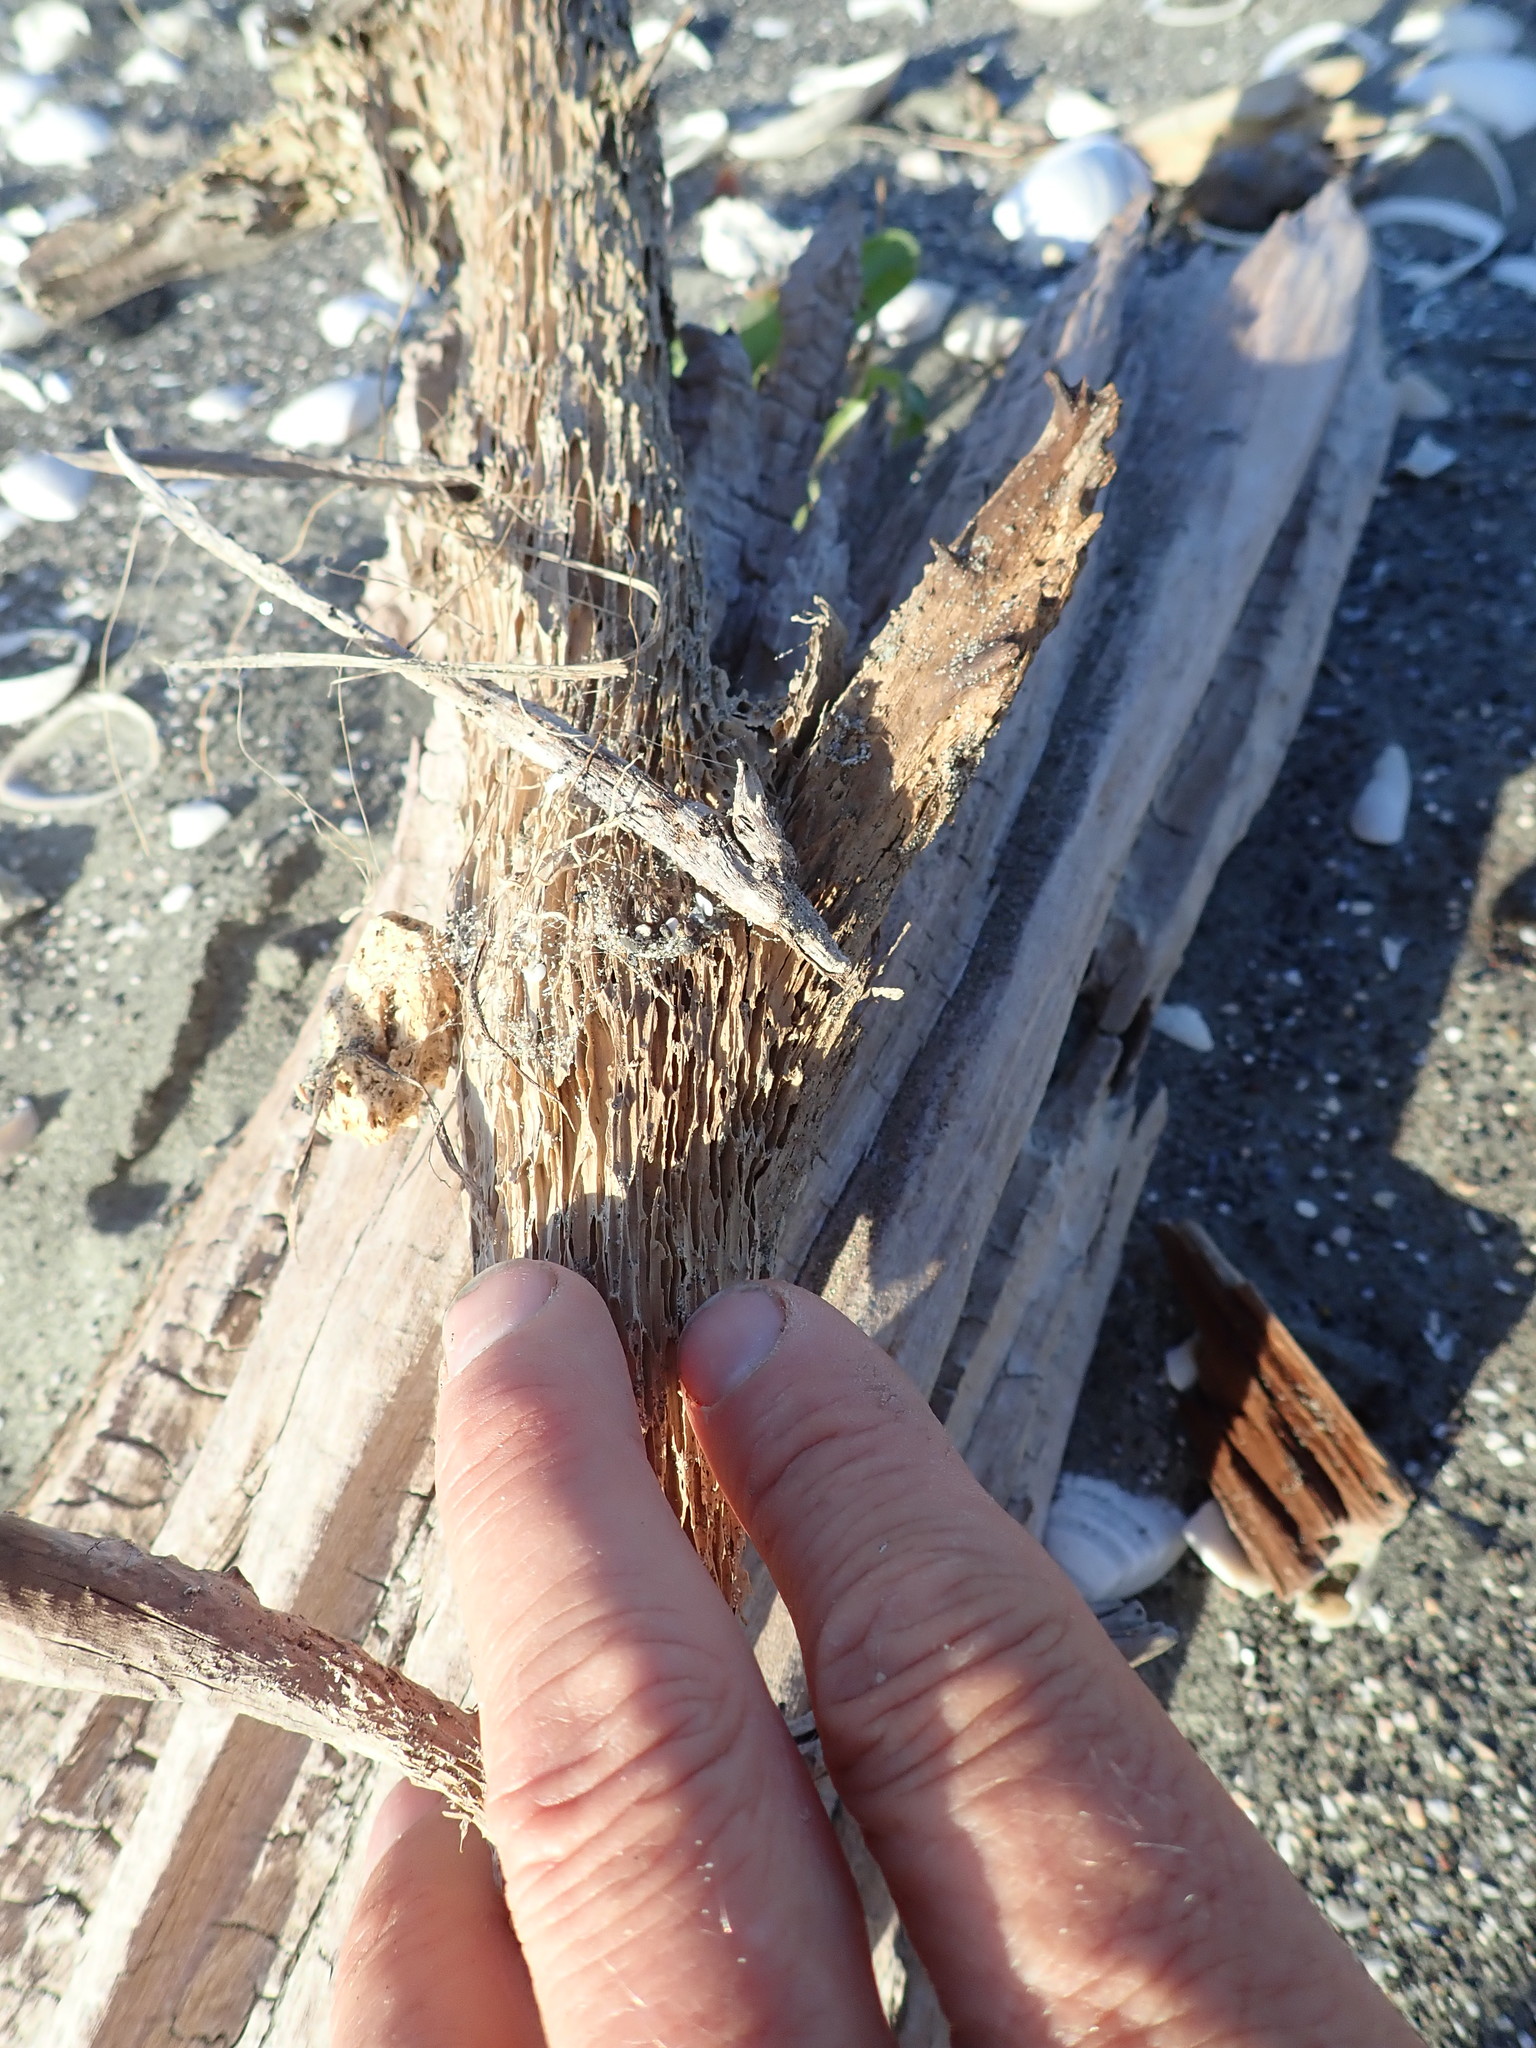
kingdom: Animalia
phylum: Arthropoda
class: Arachnida
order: Araneae
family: Theridiidae
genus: Latrodectus
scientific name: Latrodectus katipo
